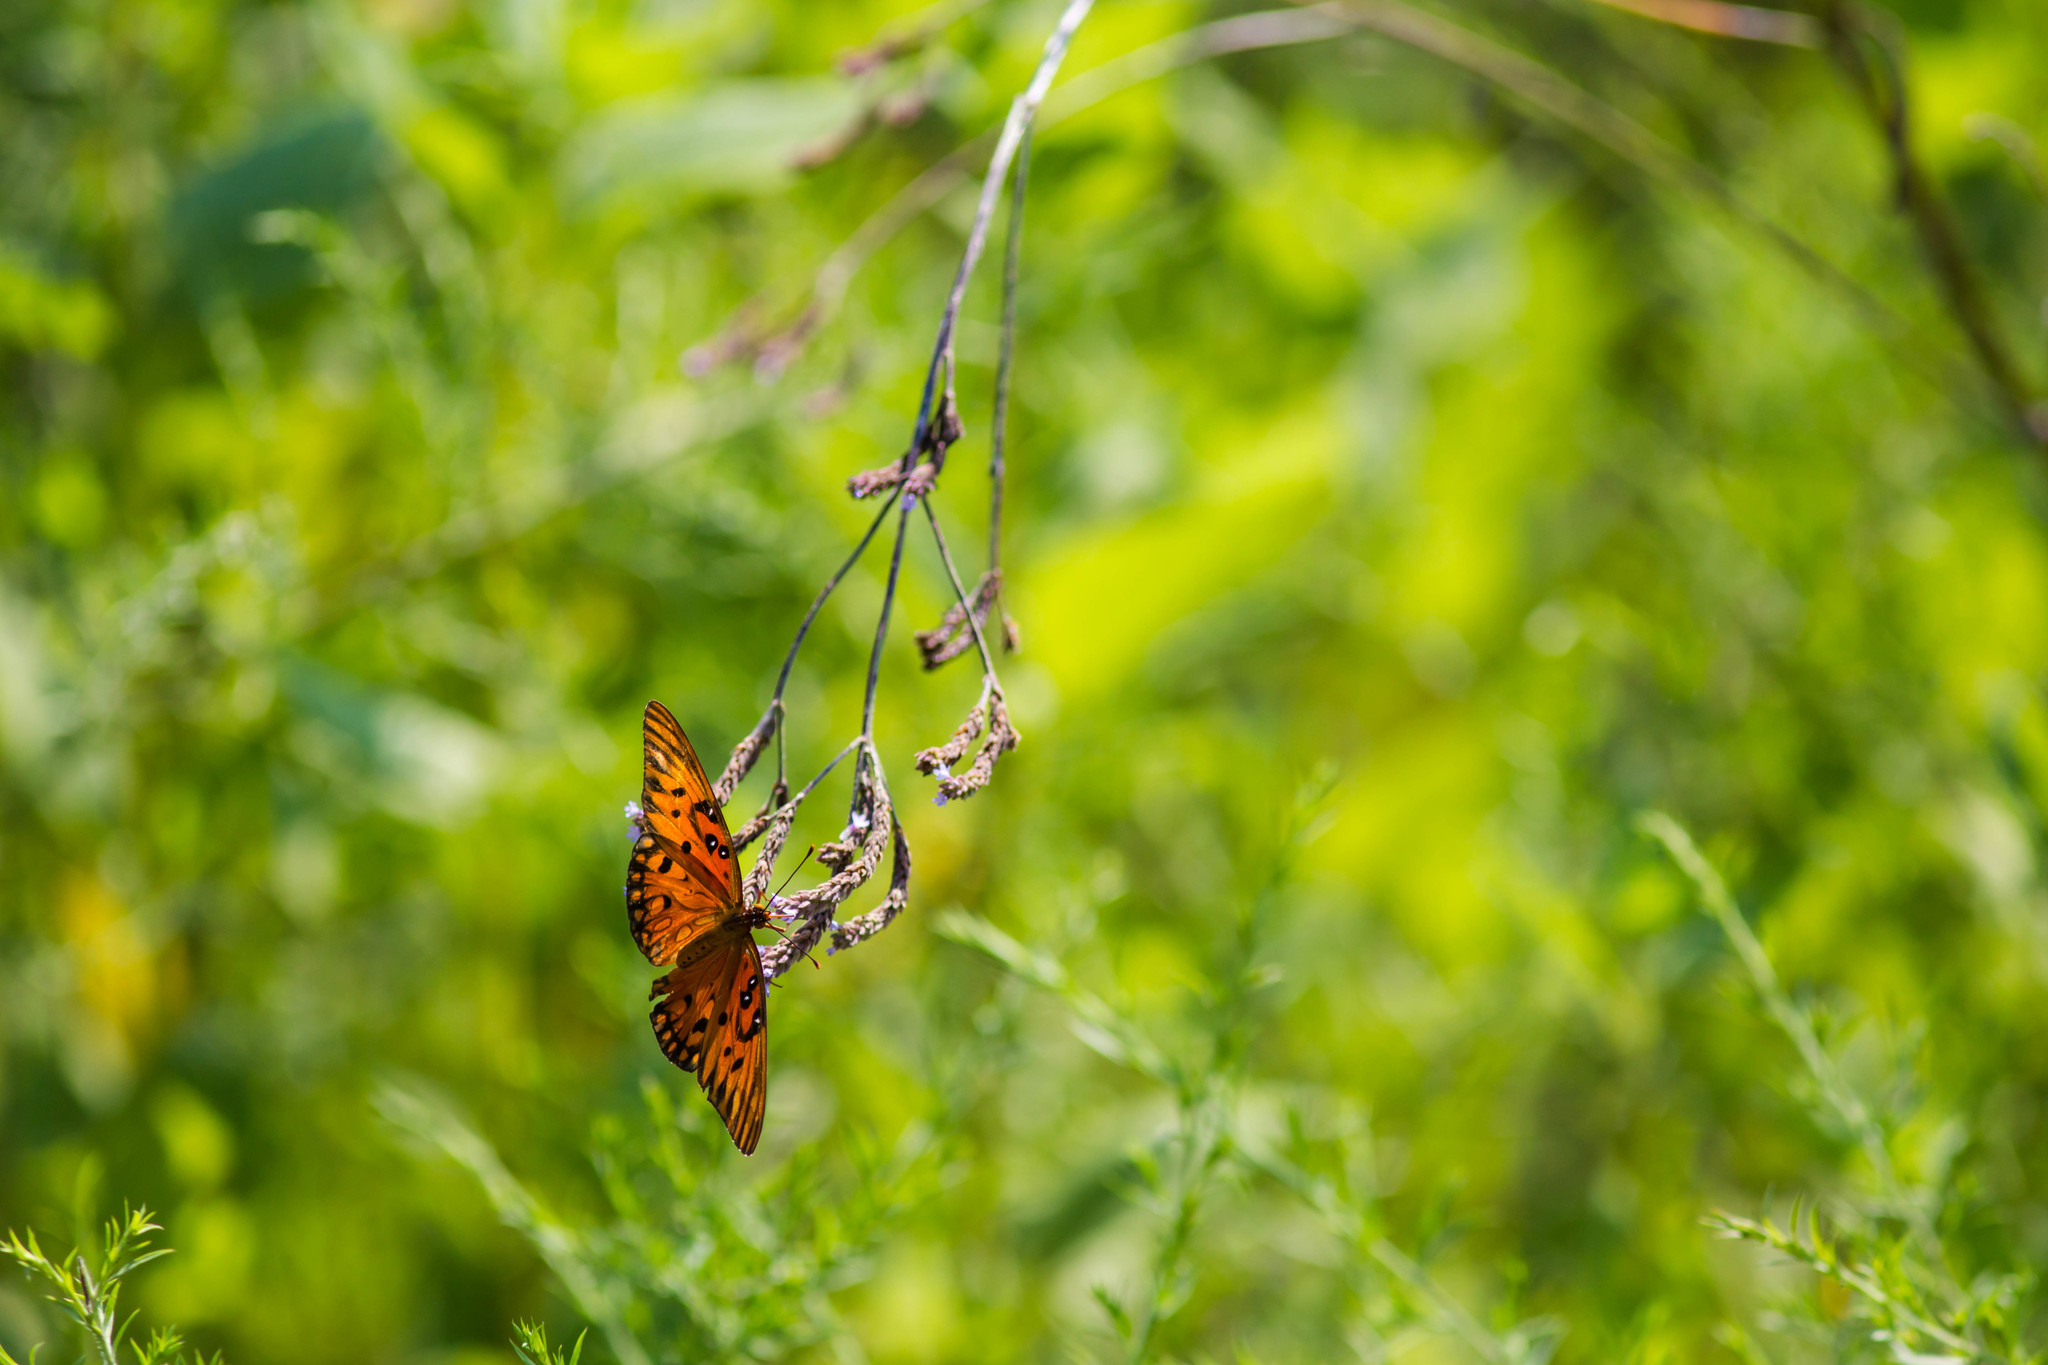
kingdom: Animalia
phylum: Arthropoda
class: Insecta
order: Lepidoptera
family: Nymphalidae
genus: Dione
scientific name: Dione vanillae
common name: Gulf fritillary
